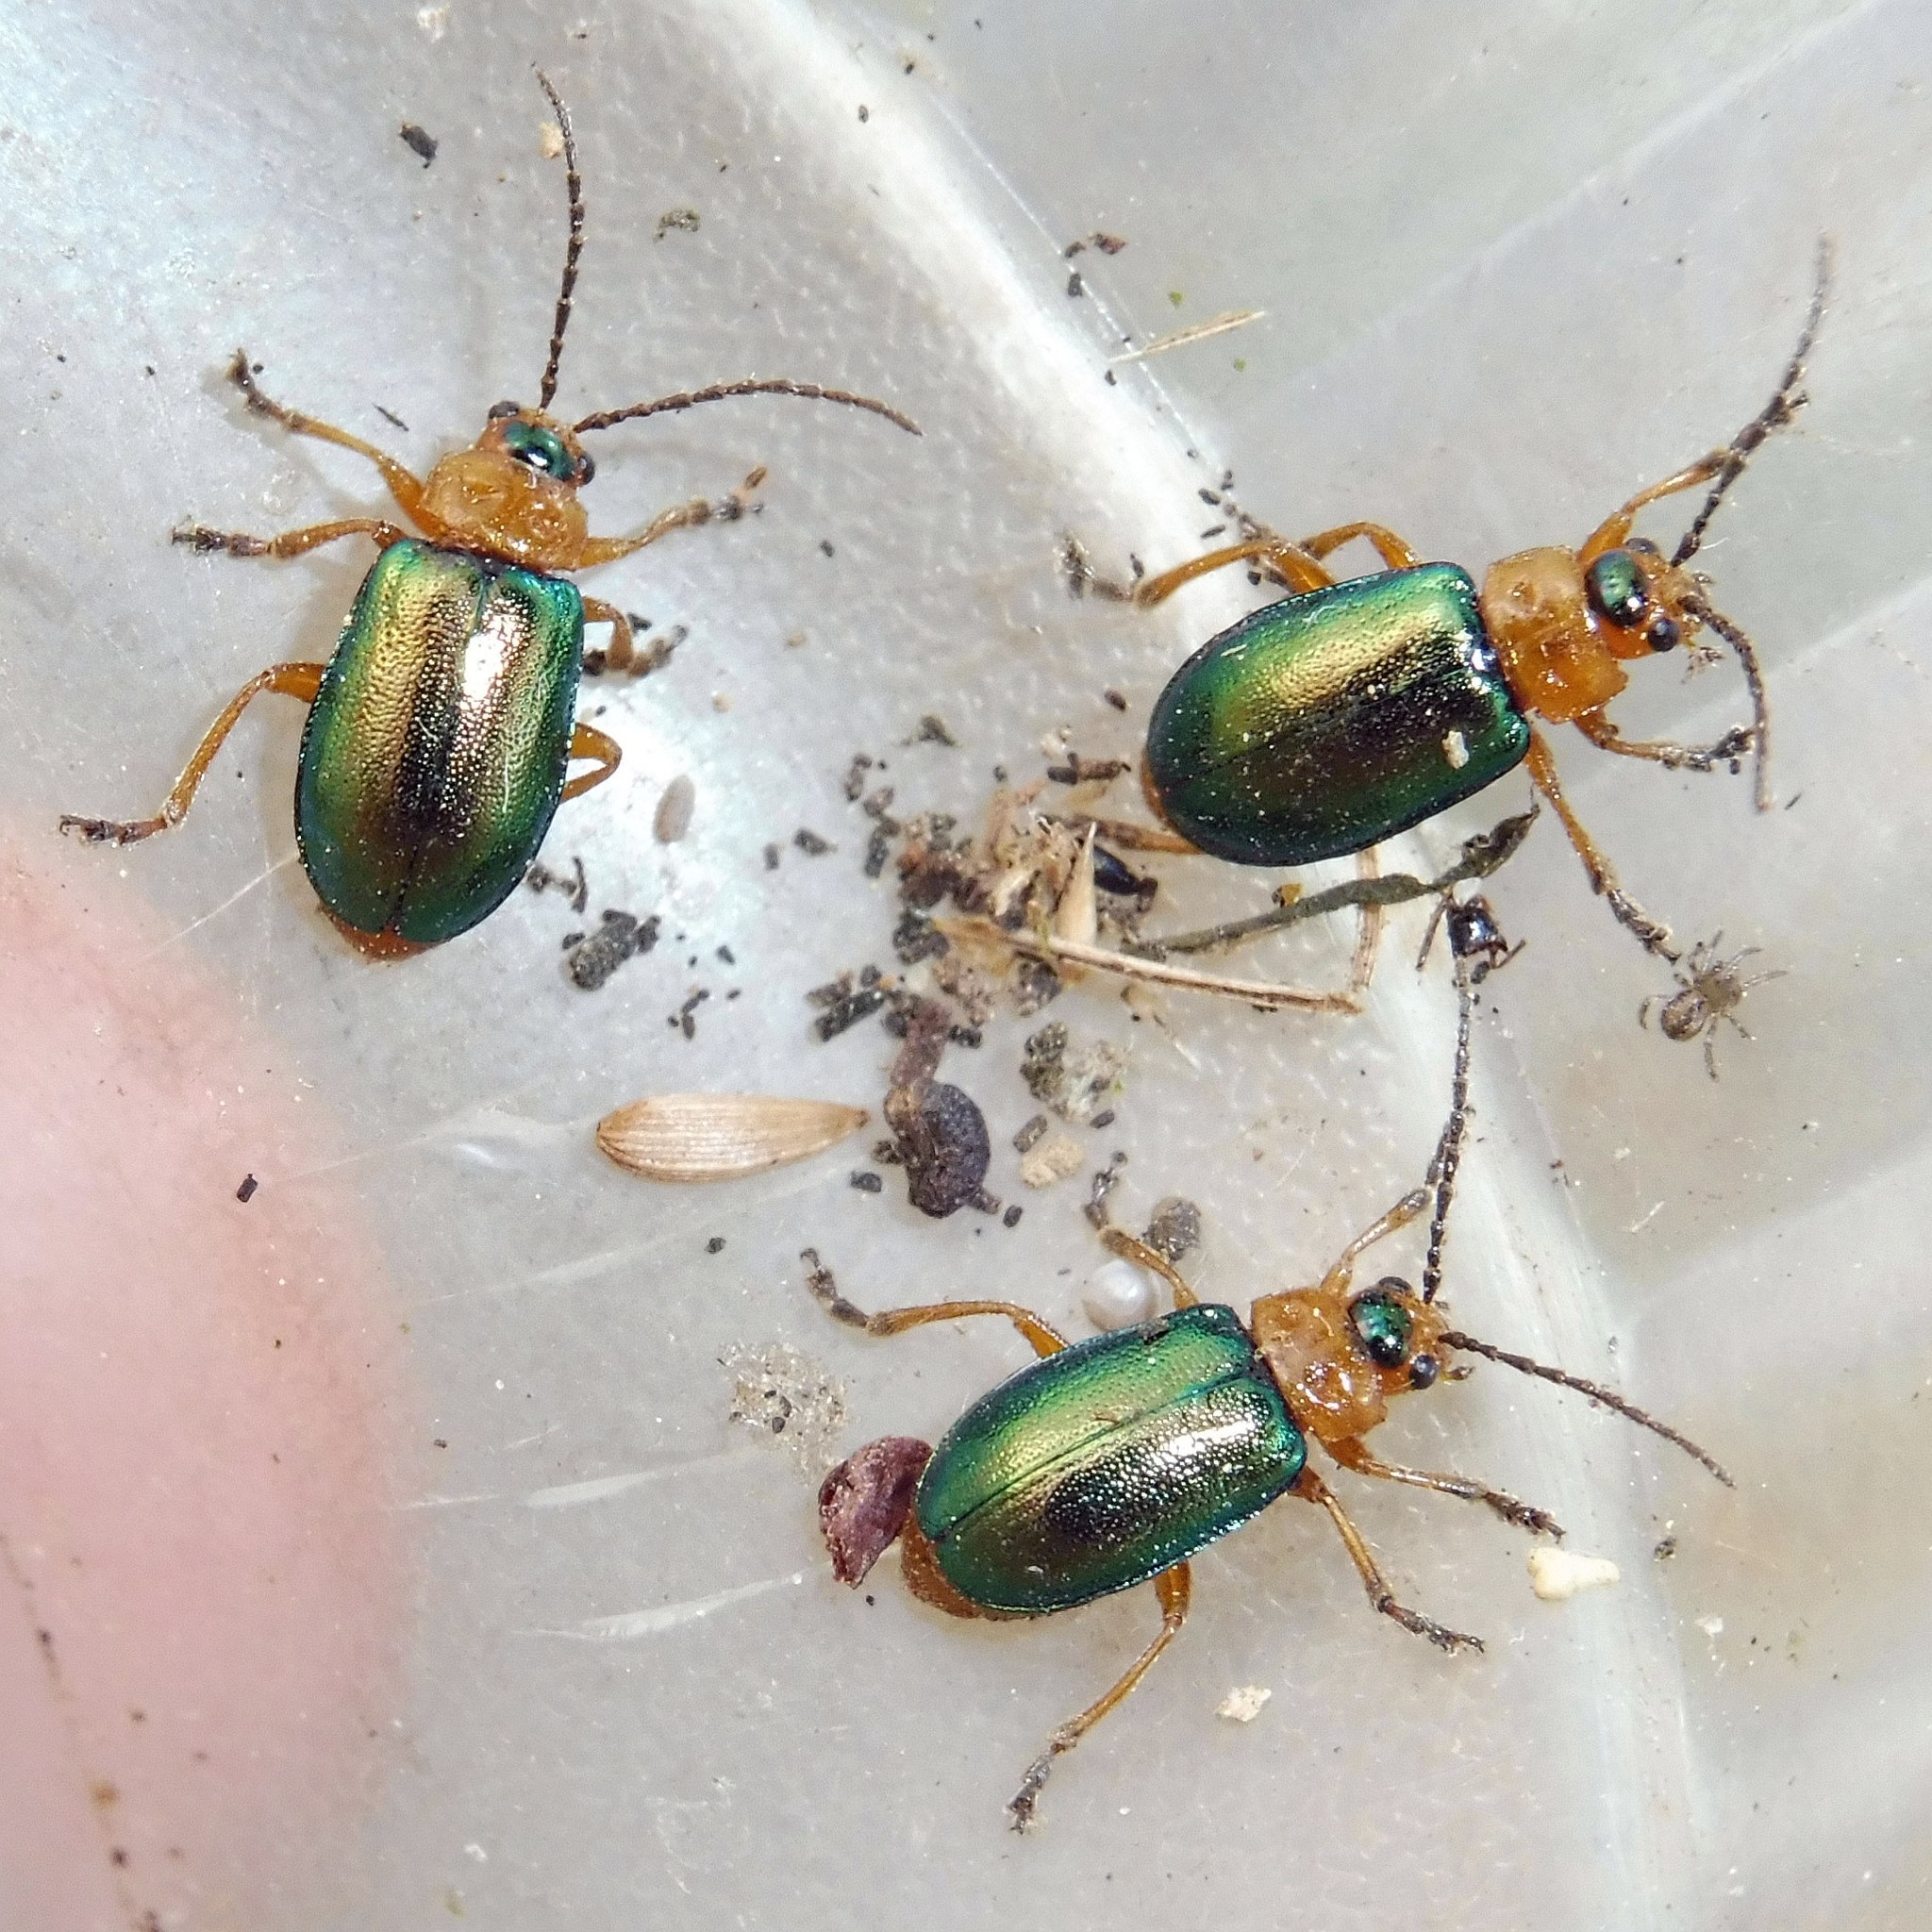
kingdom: Animalia
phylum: Arthropoda
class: Insecta
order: Coleoptera
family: Chrysomelidae
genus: Sermylassa
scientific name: Sermylassa halensis
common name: Leaf beetle
